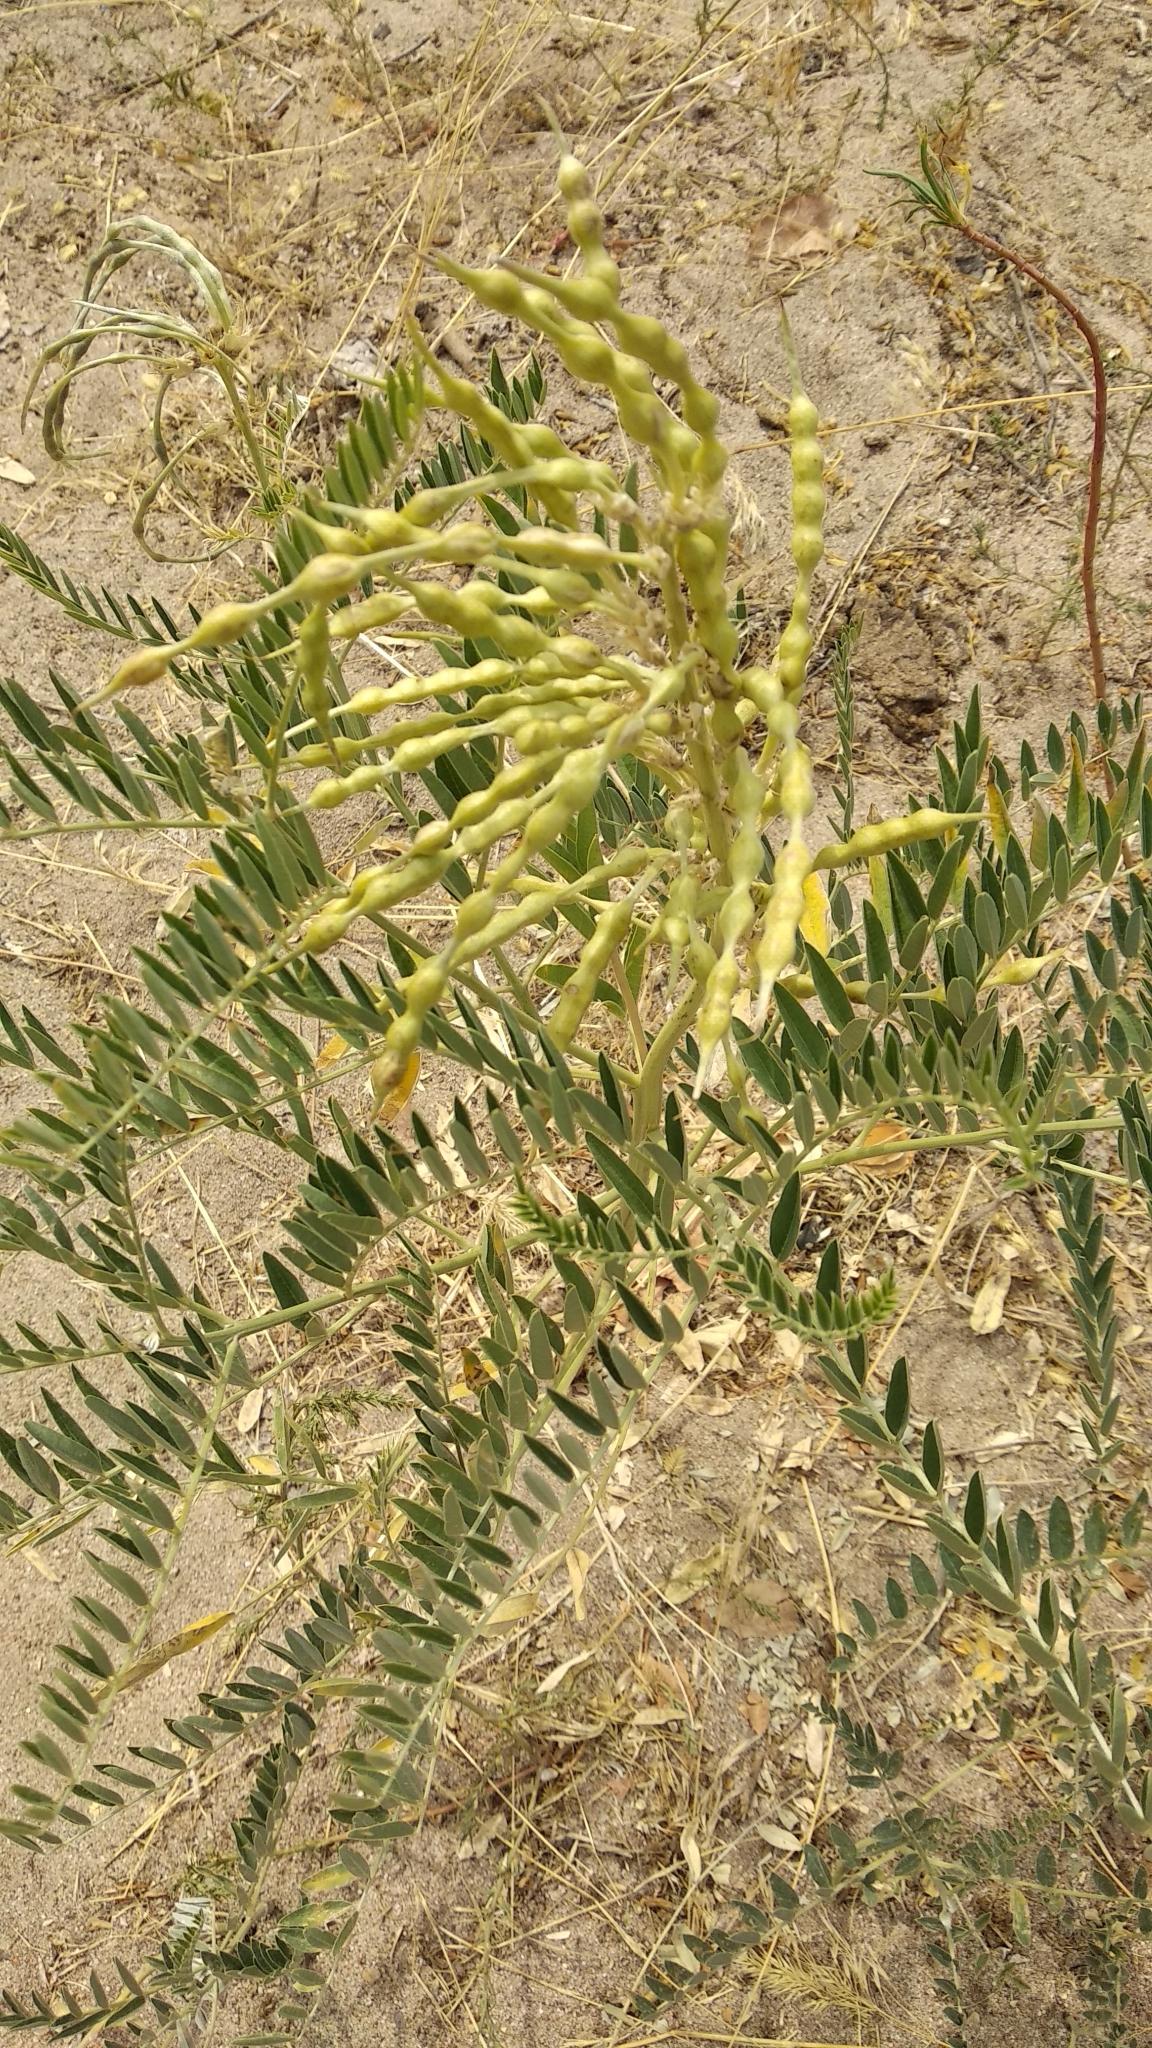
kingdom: Plantae
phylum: Tracheophyta
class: Magnoliopsida
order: Fabales
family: Fabaceae
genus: Sophora
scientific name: Sophora alopecuroides
